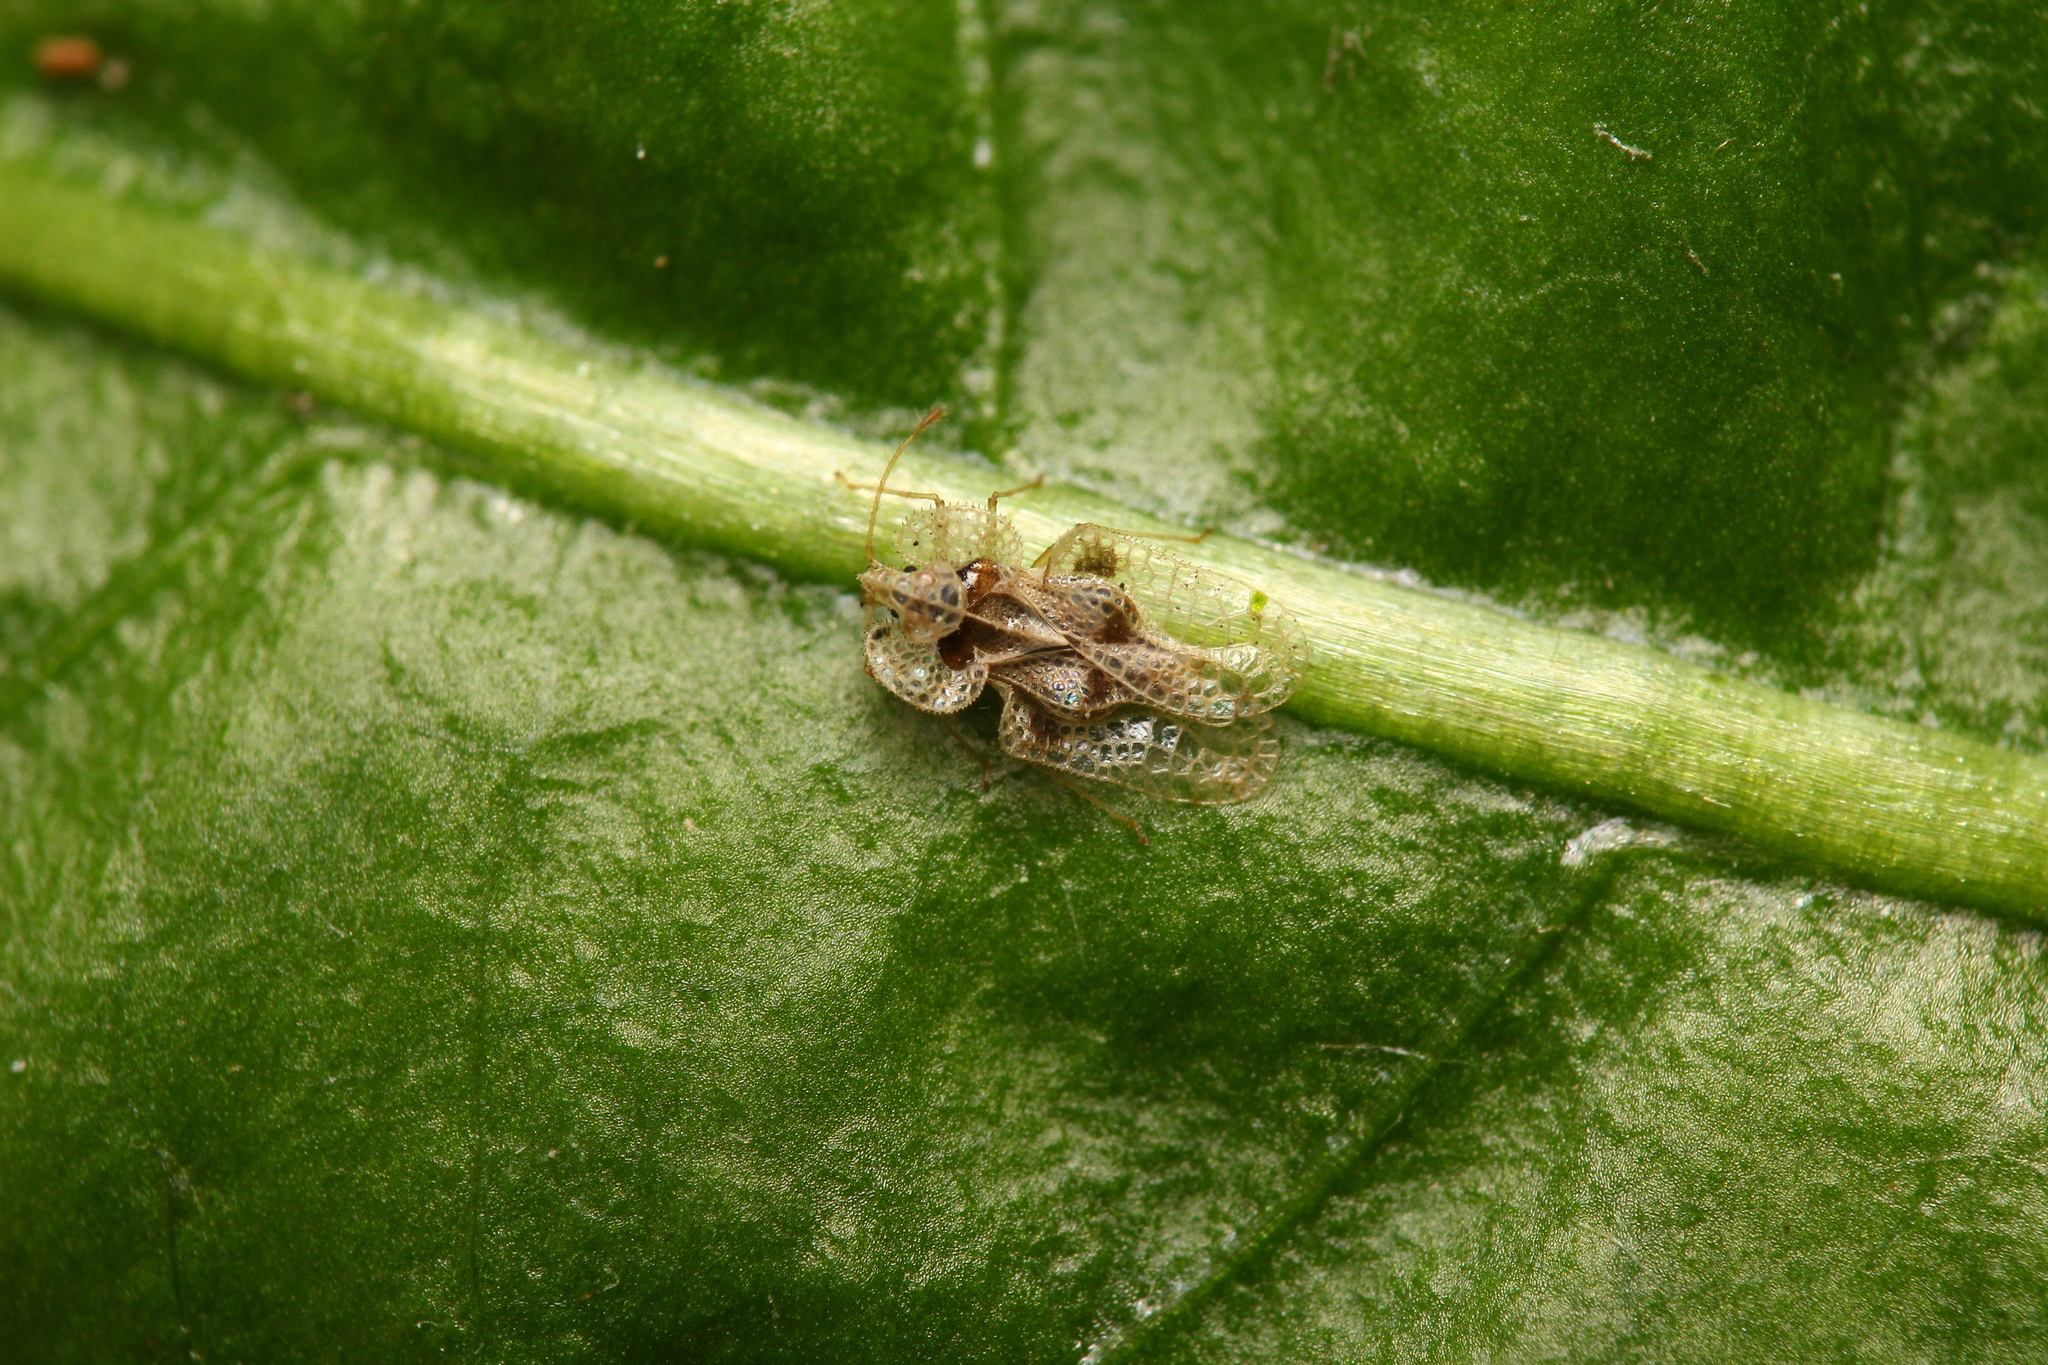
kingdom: Animalia
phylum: Arthropoda
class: Insecta
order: Hemiptera
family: Tingidae
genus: Corythucha
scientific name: Corythucha arcuata
